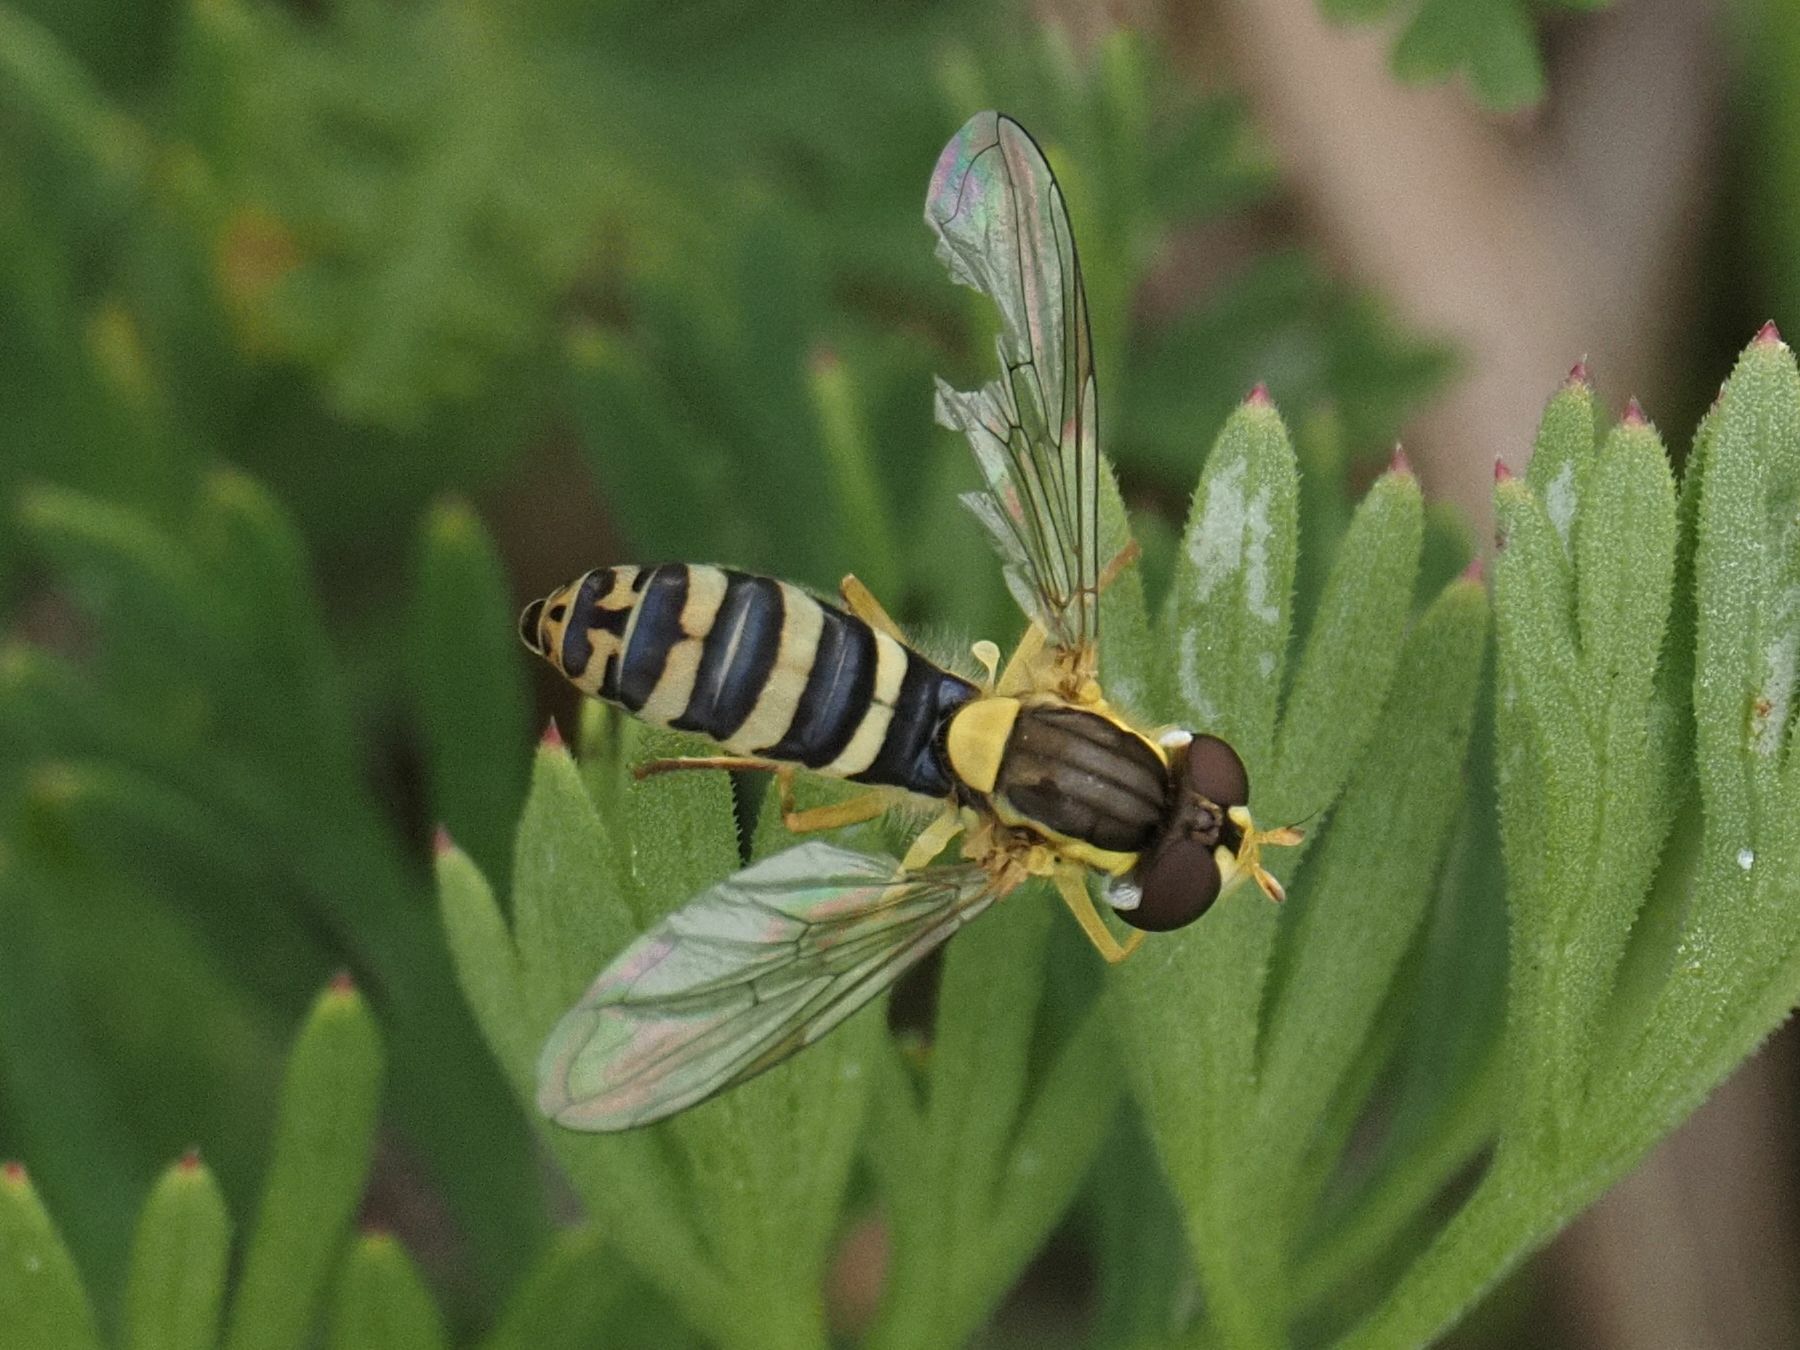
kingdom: Animalia
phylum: Arthropoda
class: Insecta
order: Diptera
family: Syrphidae
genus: Sphaerophoria
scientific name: Sphaerophoria
